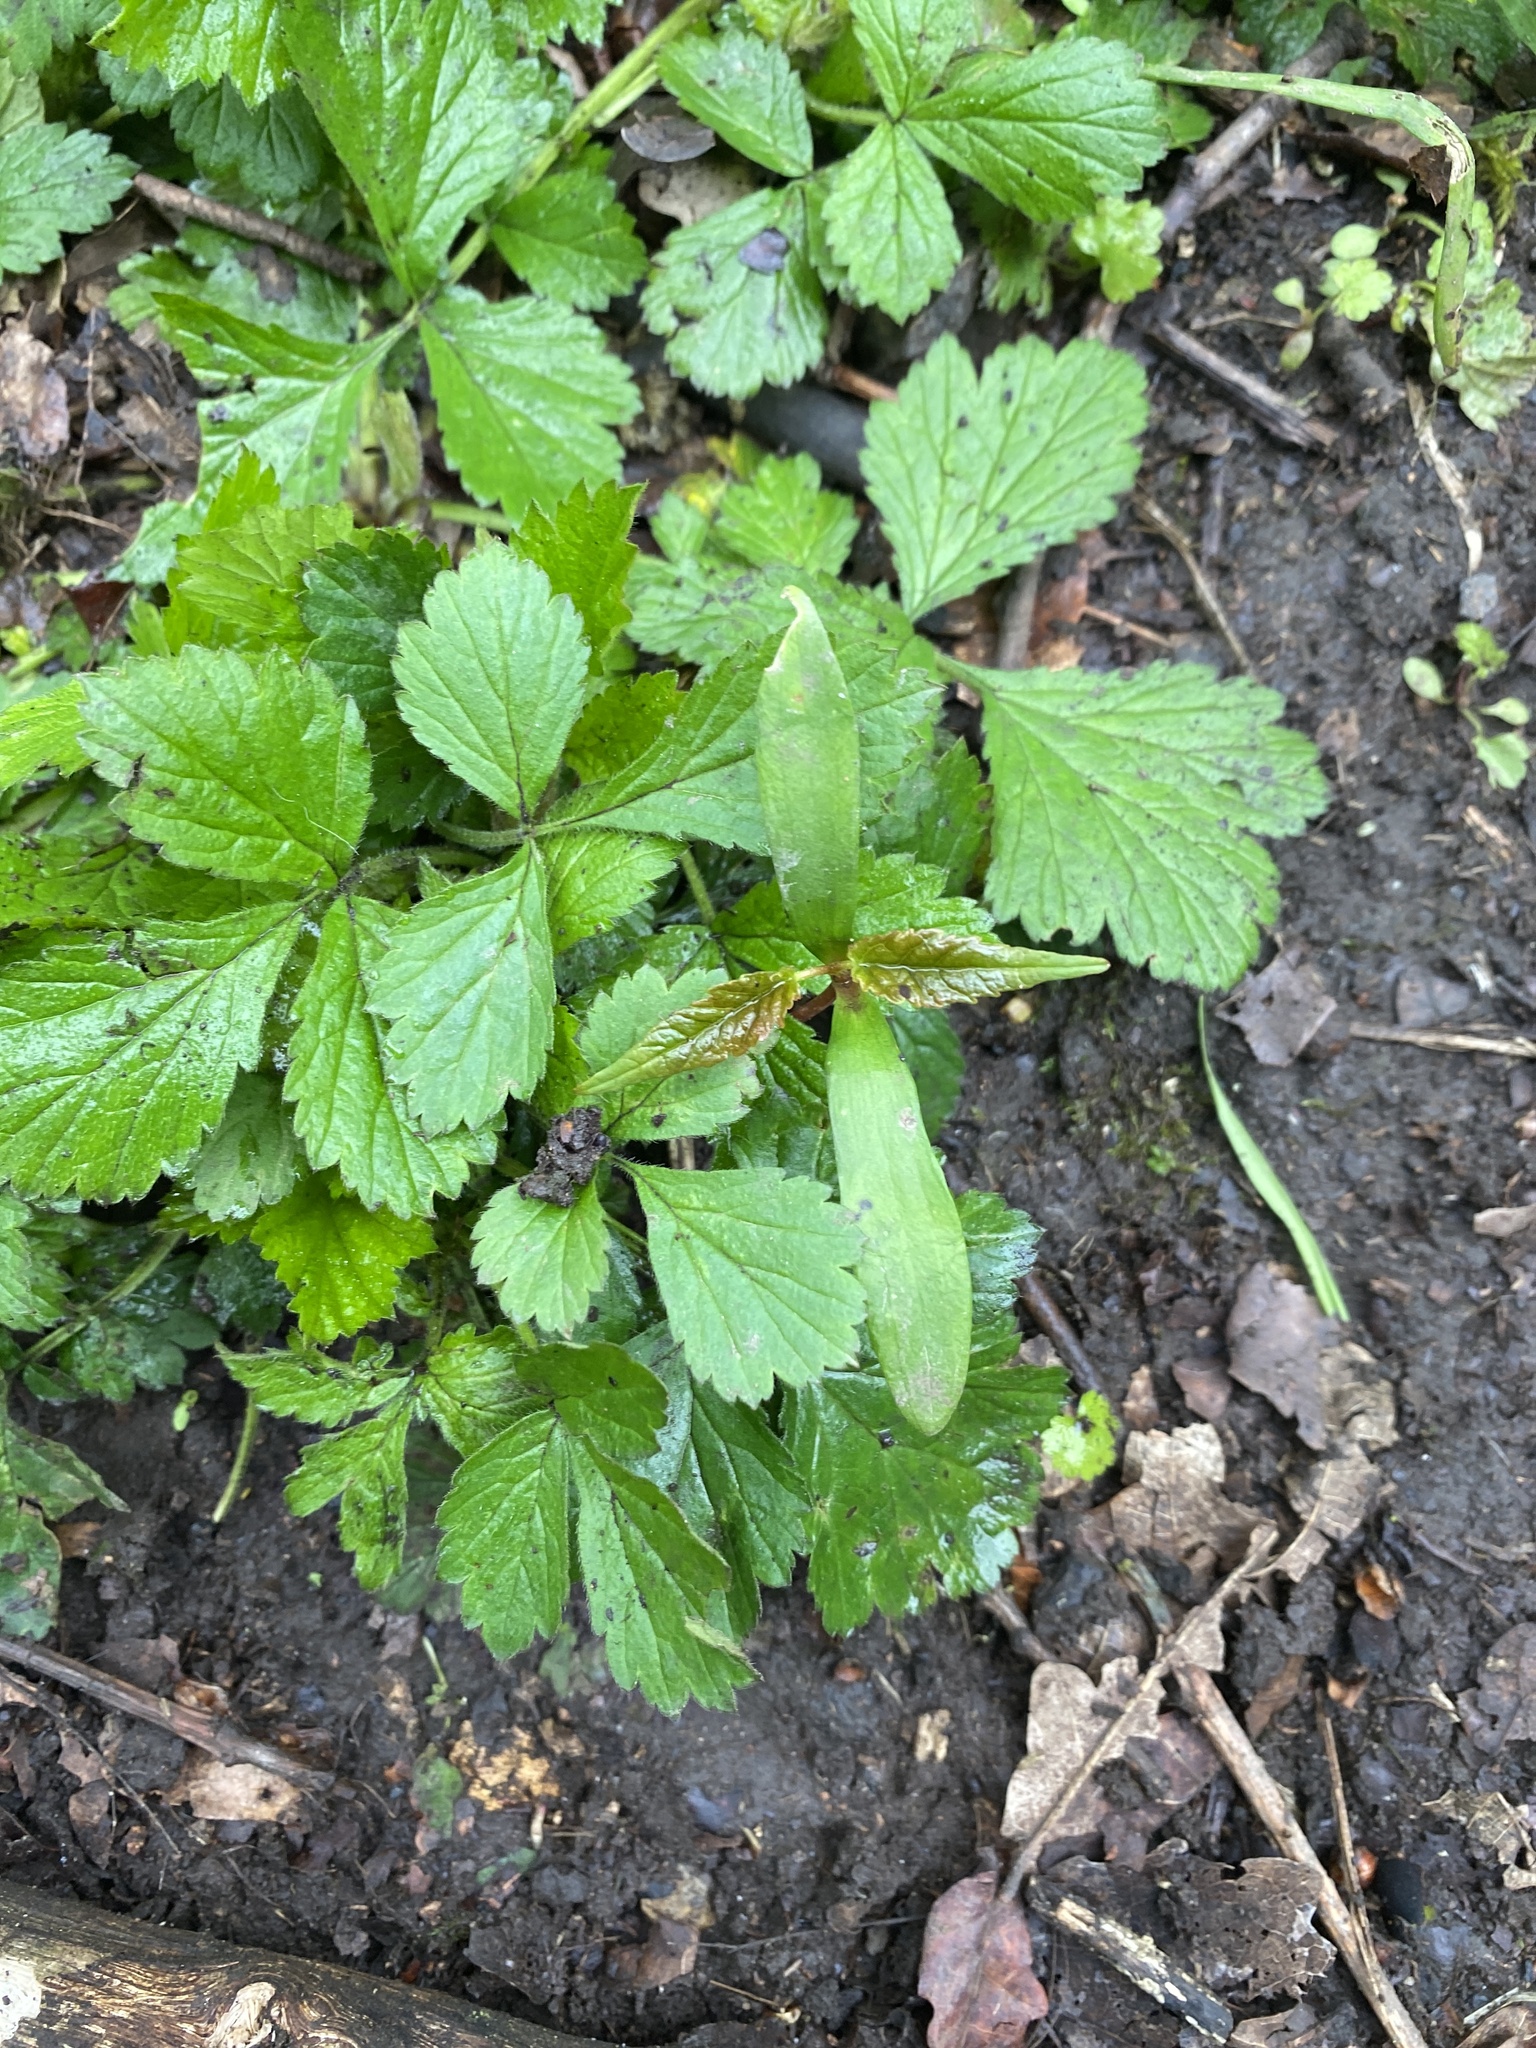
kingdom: Plantae
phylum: Tracheophyta
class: Magnoliopsida
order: Rosales
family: Rosaceae
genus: Geum
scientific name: Geum urbanum
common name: Wood avens
